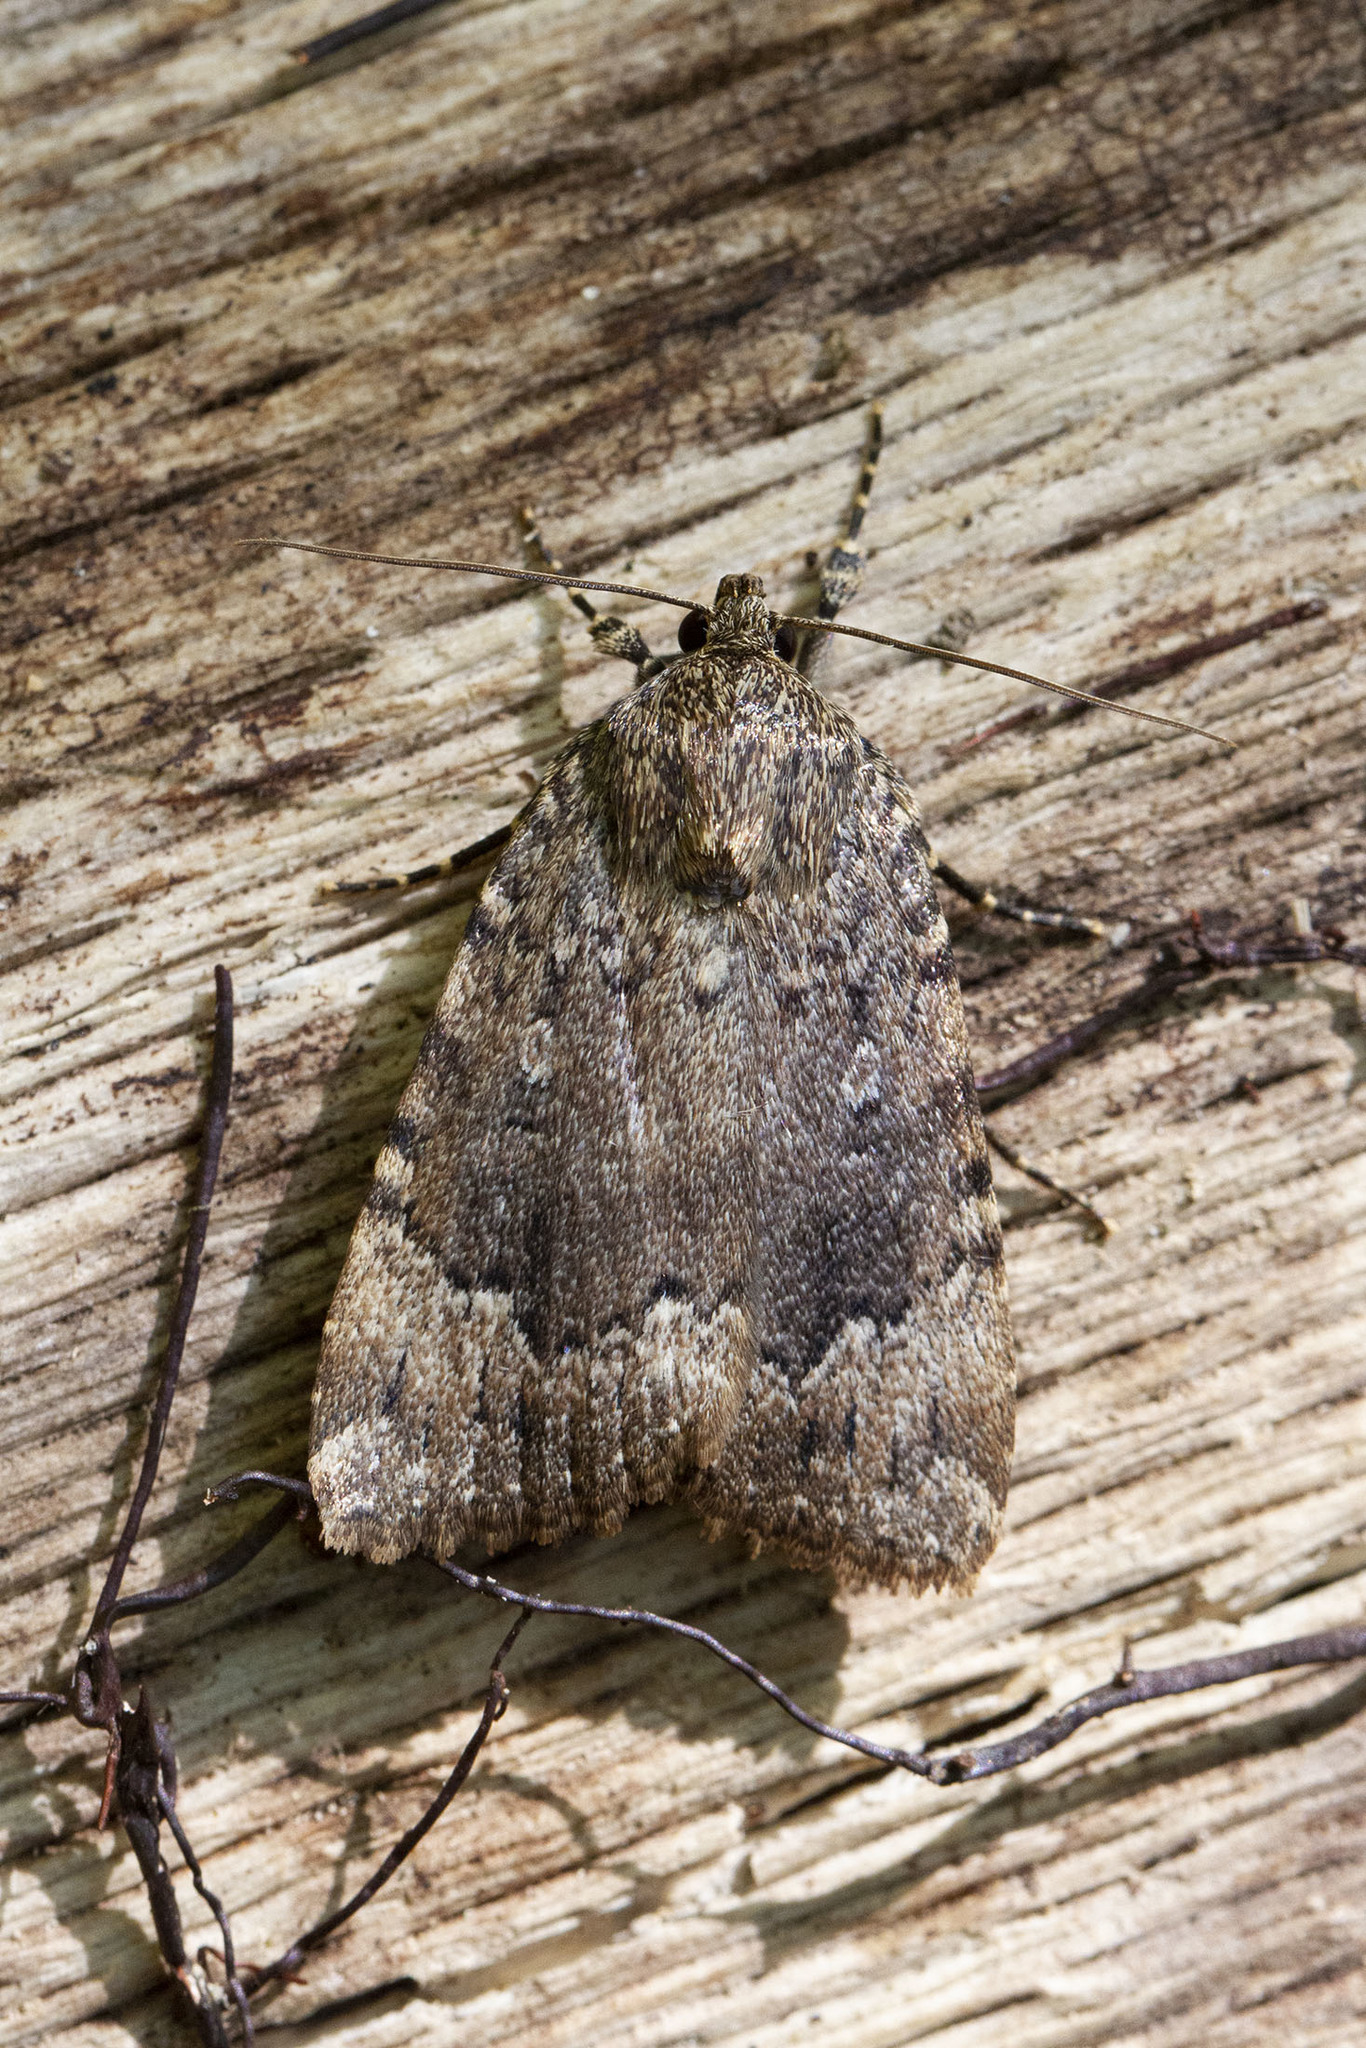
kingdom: Animalia
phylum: Arthropoda
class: Insecta
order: Lepidoptera
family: Noctuidae
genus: Amphipyra
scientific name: Amphipyra pyramidoides
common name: American copper underwing
